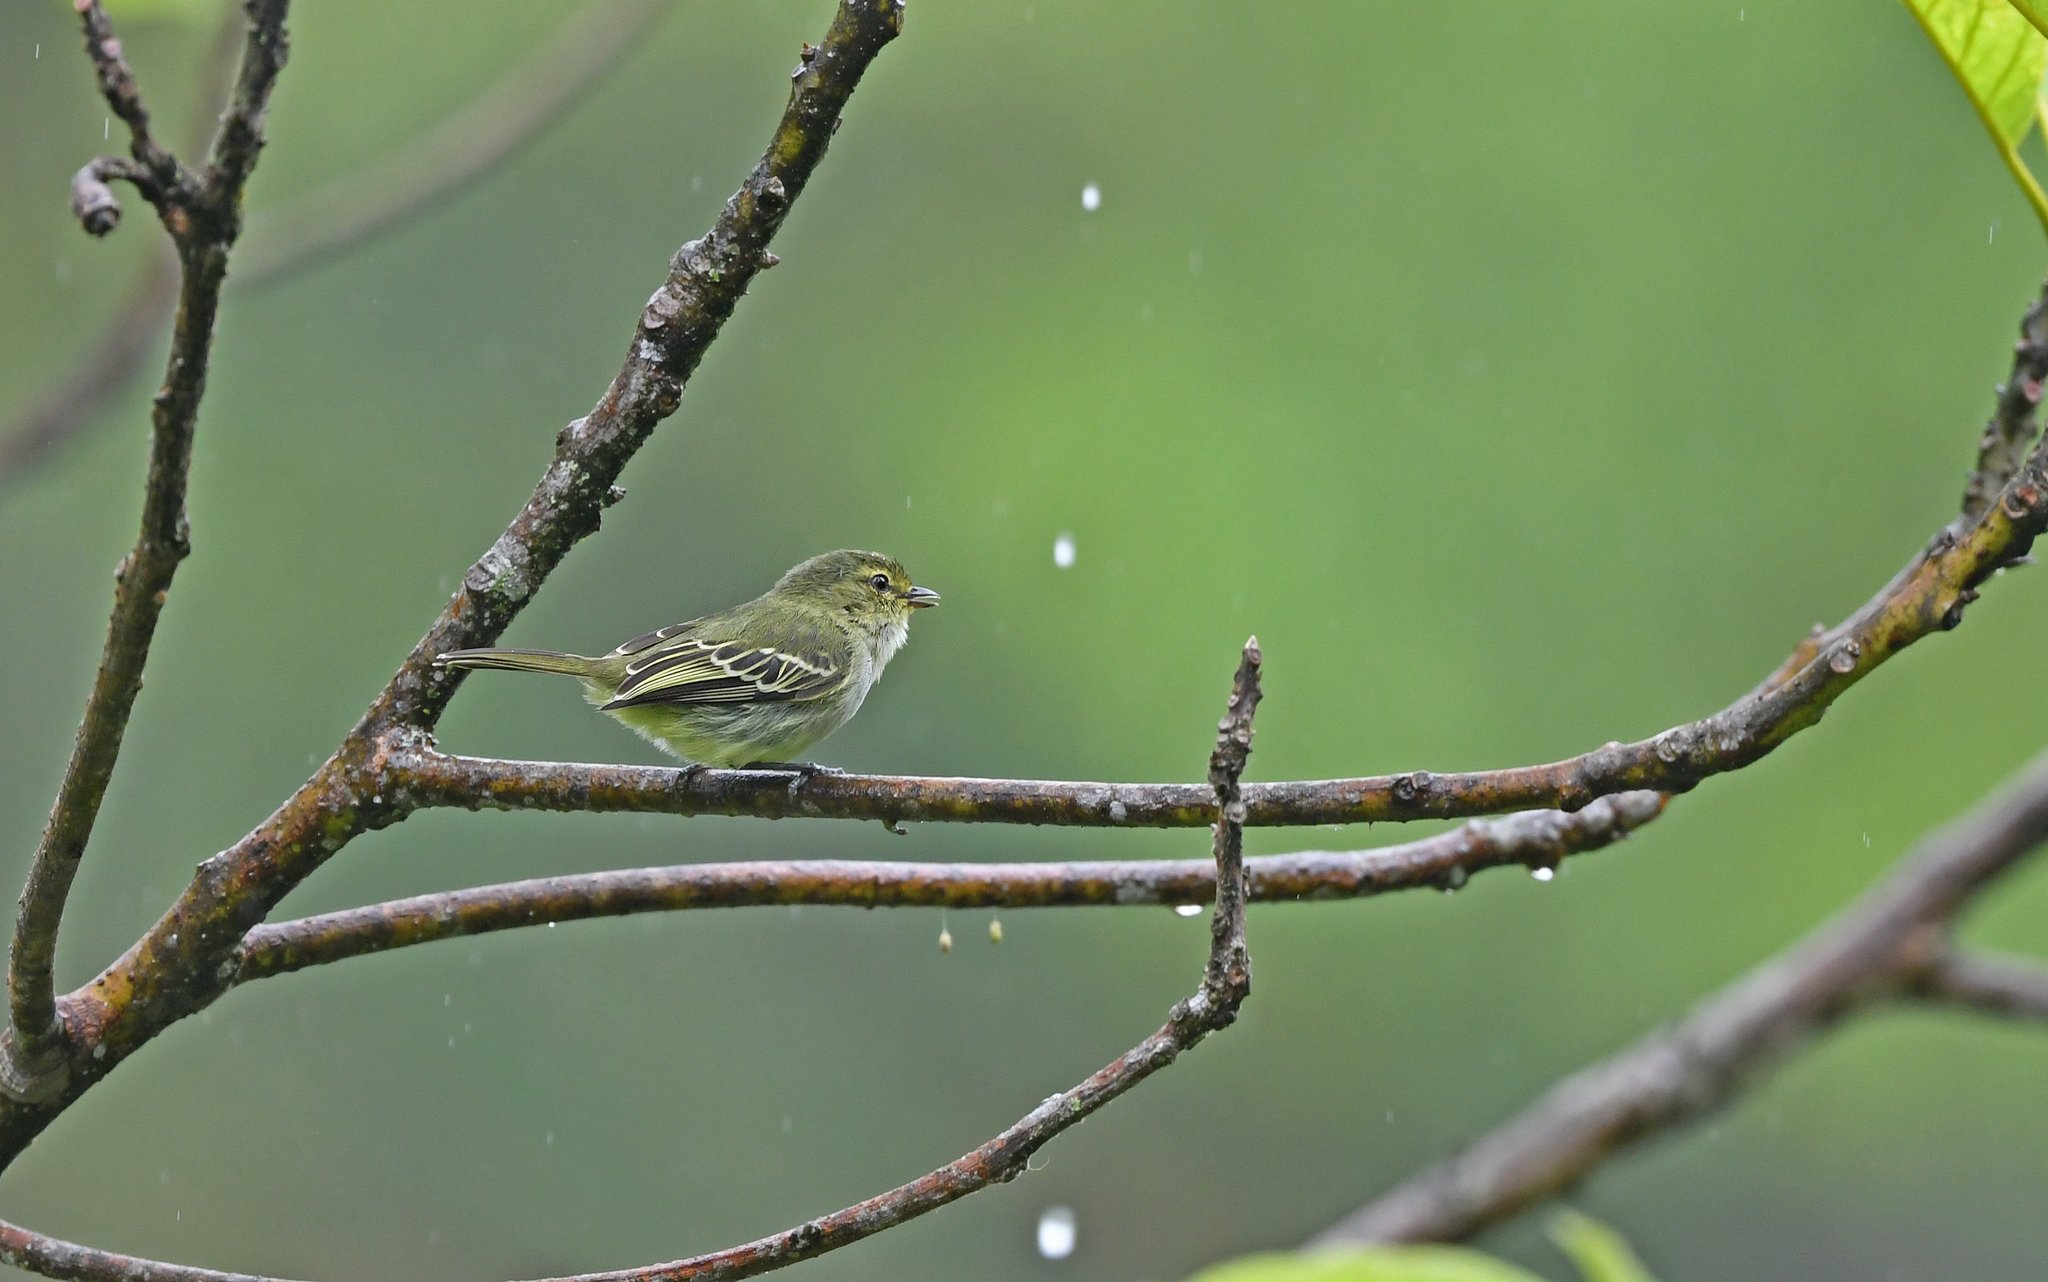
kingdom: Animalia
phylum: Chordata
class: Aves
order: Passeriformes
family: Tyrannidae
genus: Zimmerius
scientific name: Zimmerius chrysops
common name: Golden-faced tyrannulet
